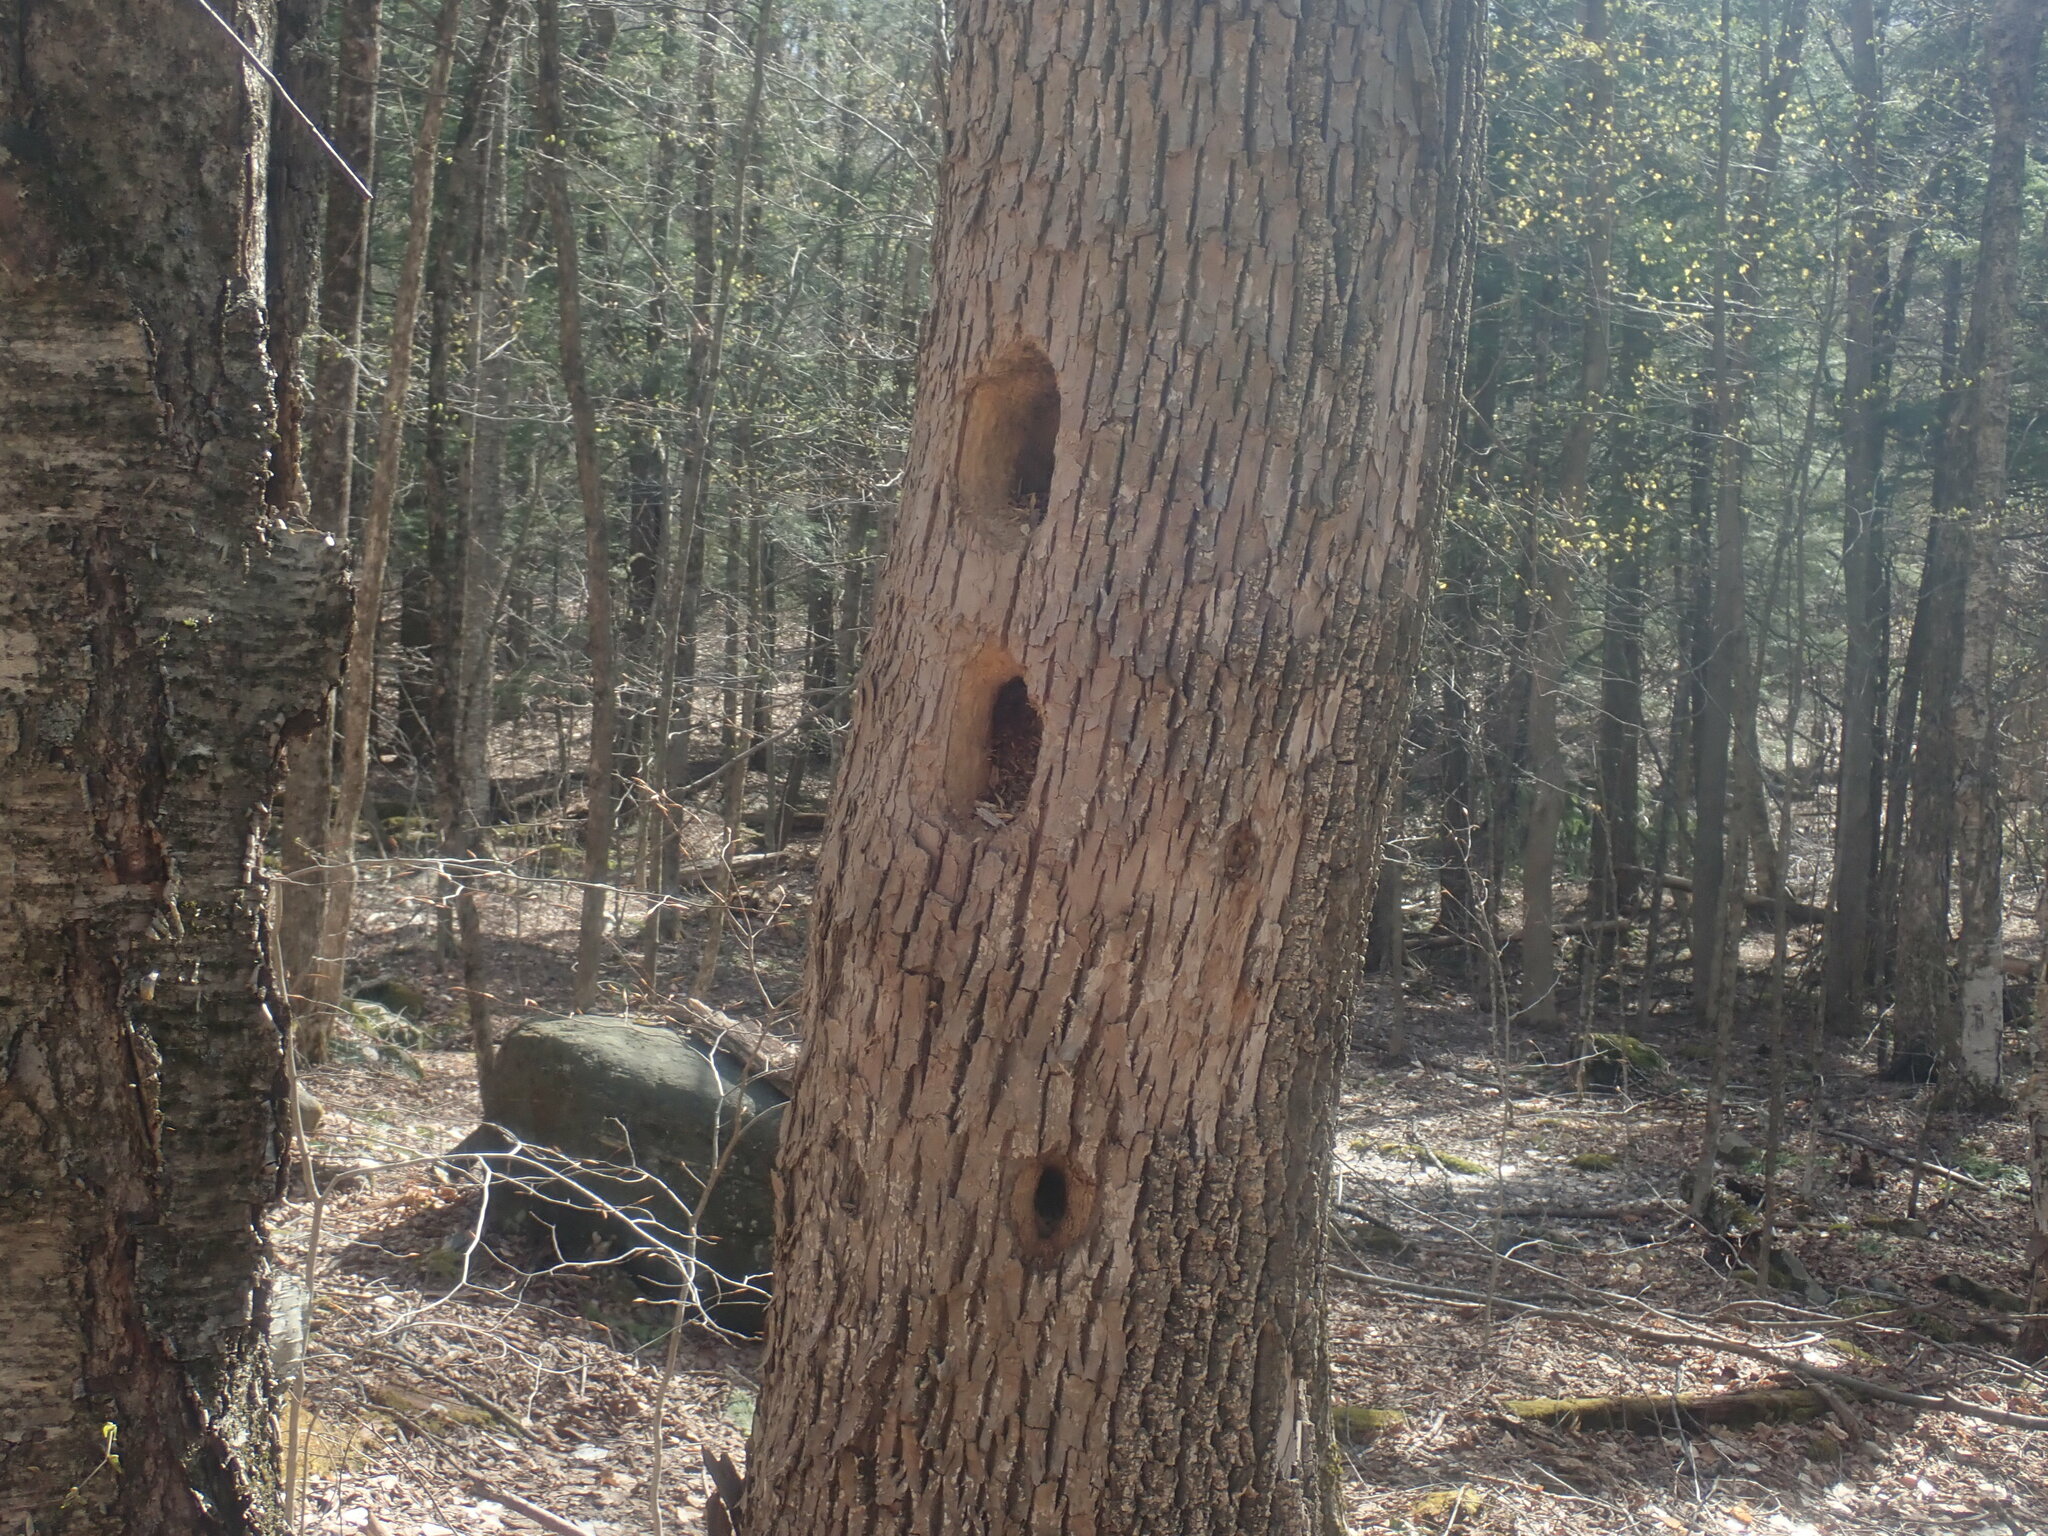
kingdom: Animalia
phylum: Chordata
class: Aves
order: Piciformes
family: Picidae
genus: Dryocopus
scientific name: Dryocopus pileatus
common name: Pileated woodpecker
